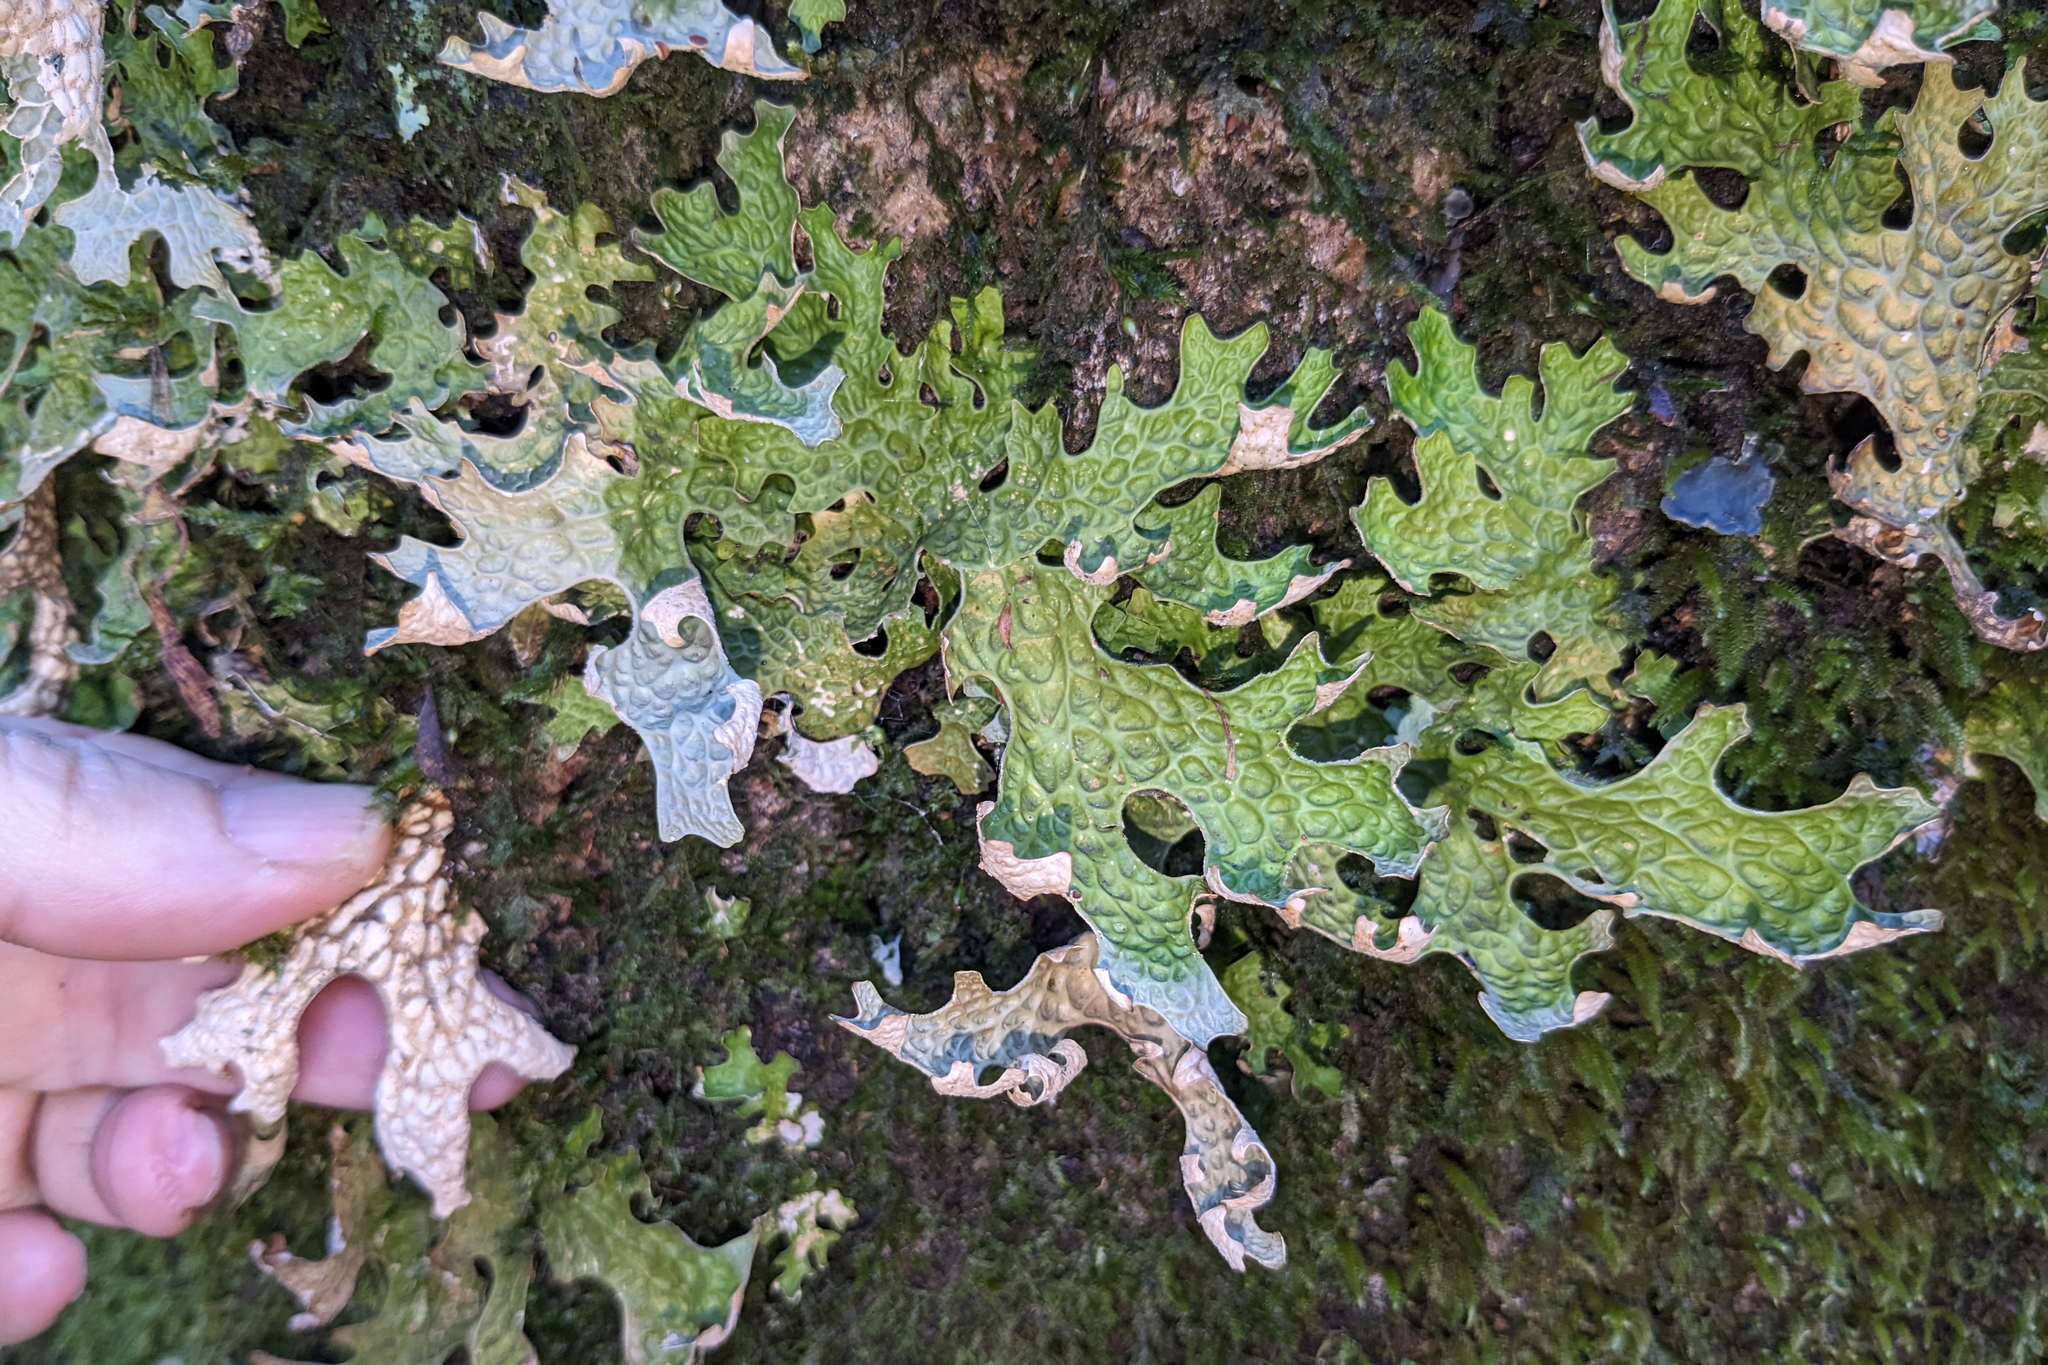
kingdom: Fungi
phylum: Ascomycota
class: Lecanoromycetes
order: Peltigerales
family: Lobariaceae
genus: Lobaria
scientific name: Lobaria pulmonaria
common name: Lungwort
